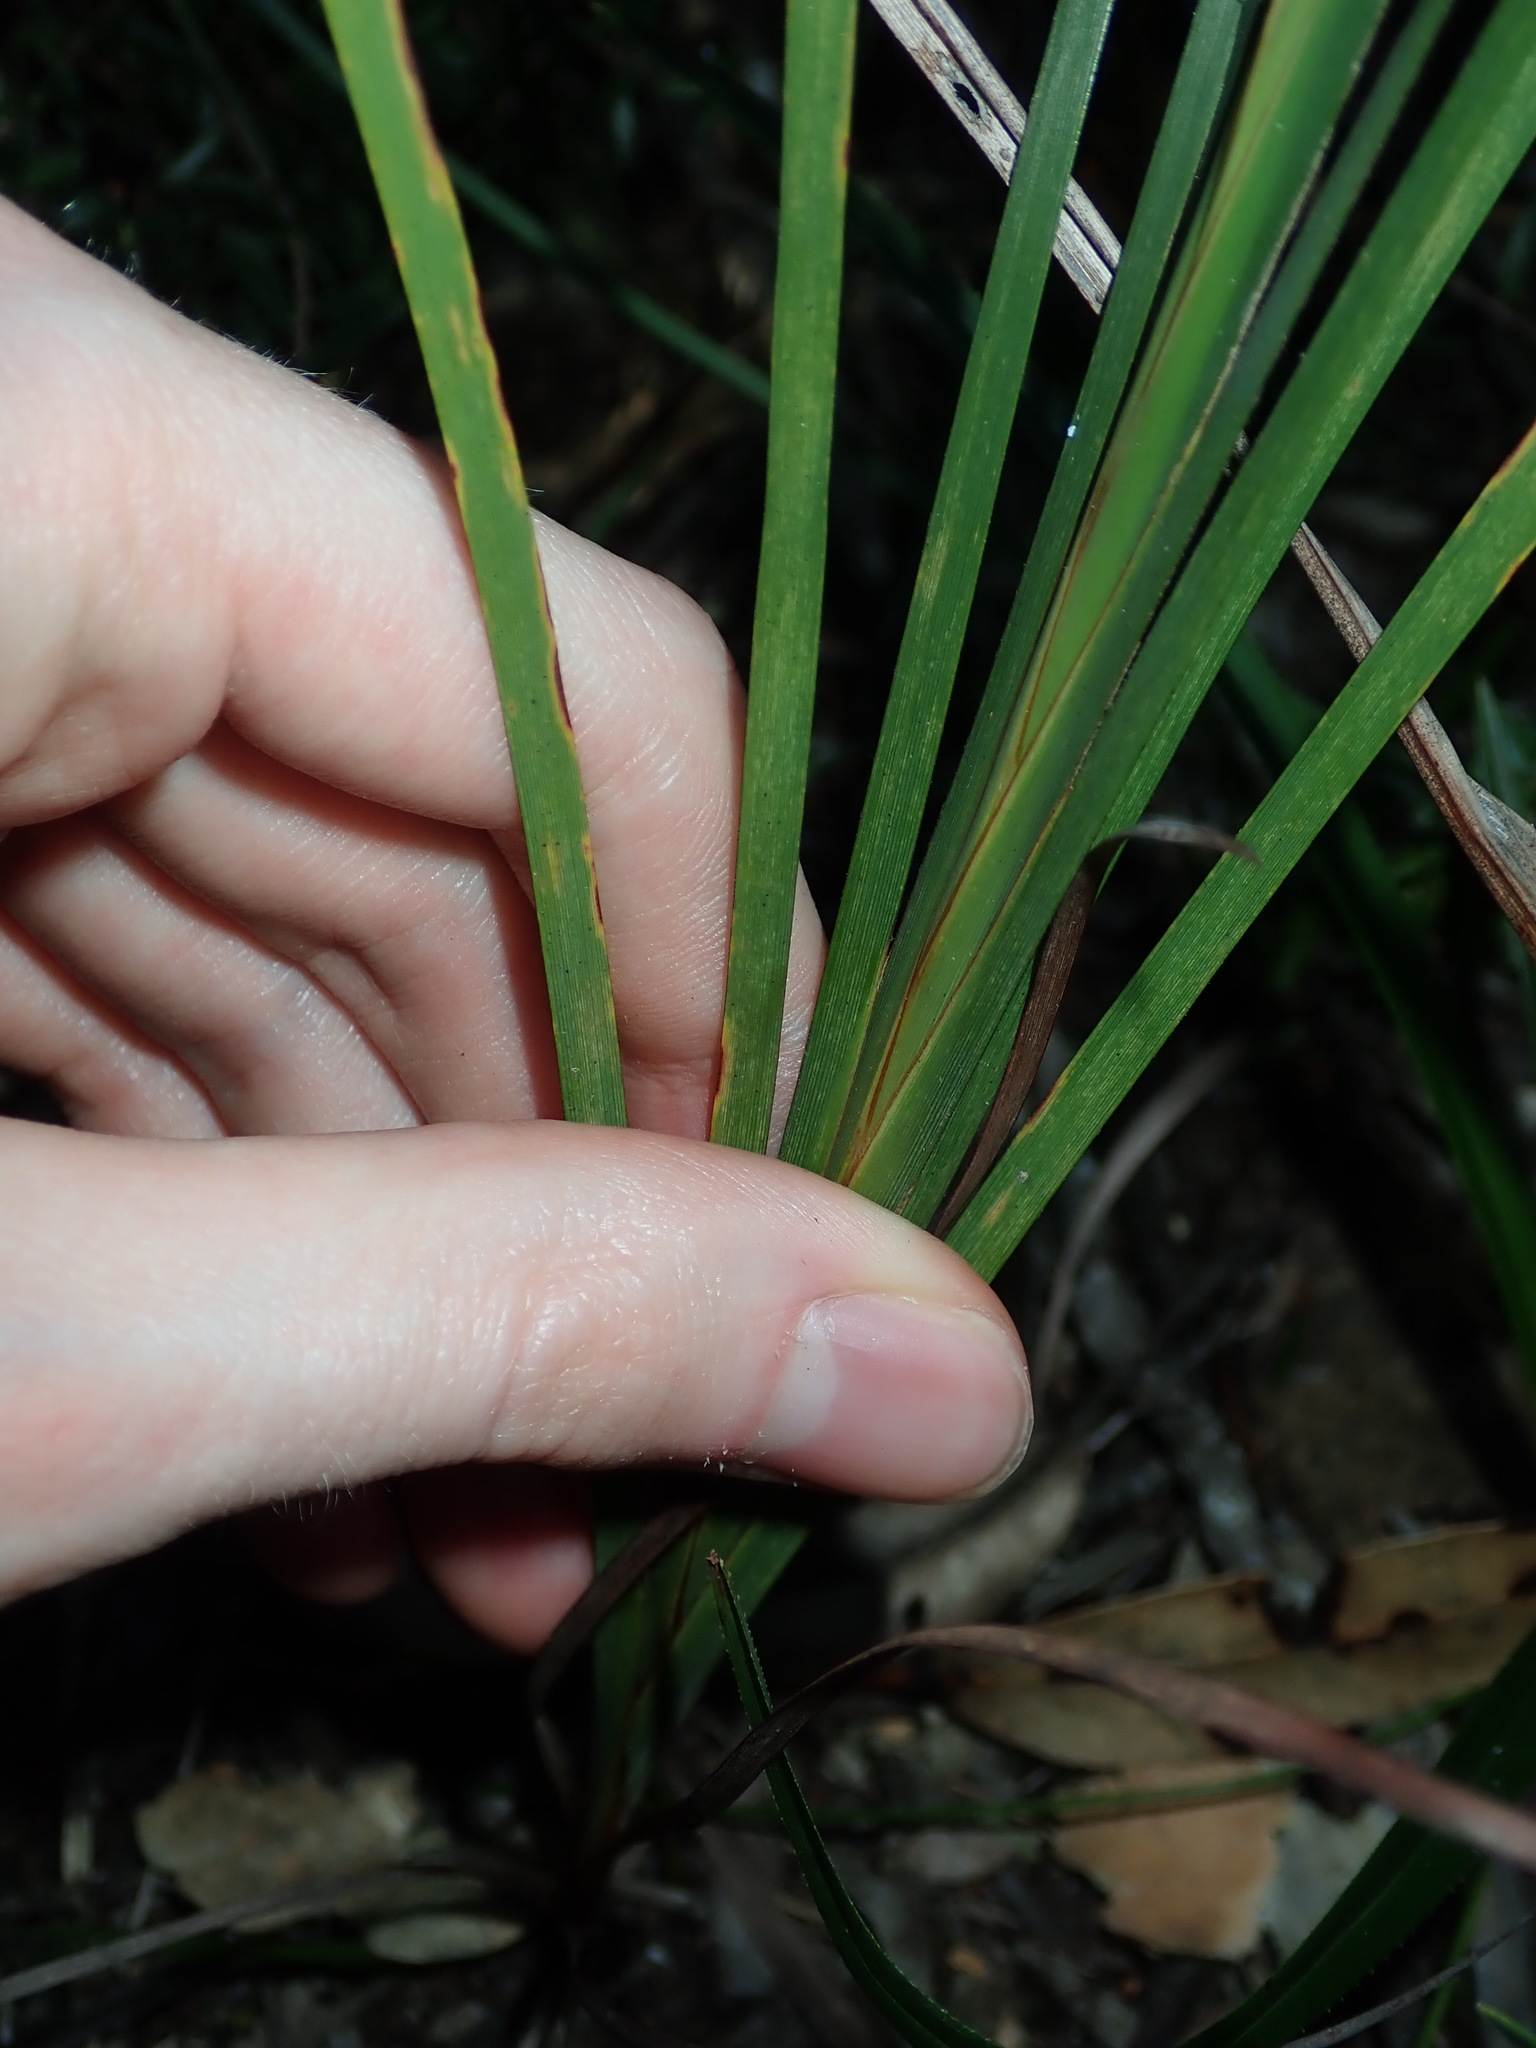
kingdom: Plantae
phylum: Tracheophyta
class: Liliopsida
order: Asparagales
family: Iridaceae
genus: Patersonia
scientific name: Patersonia glabrata
